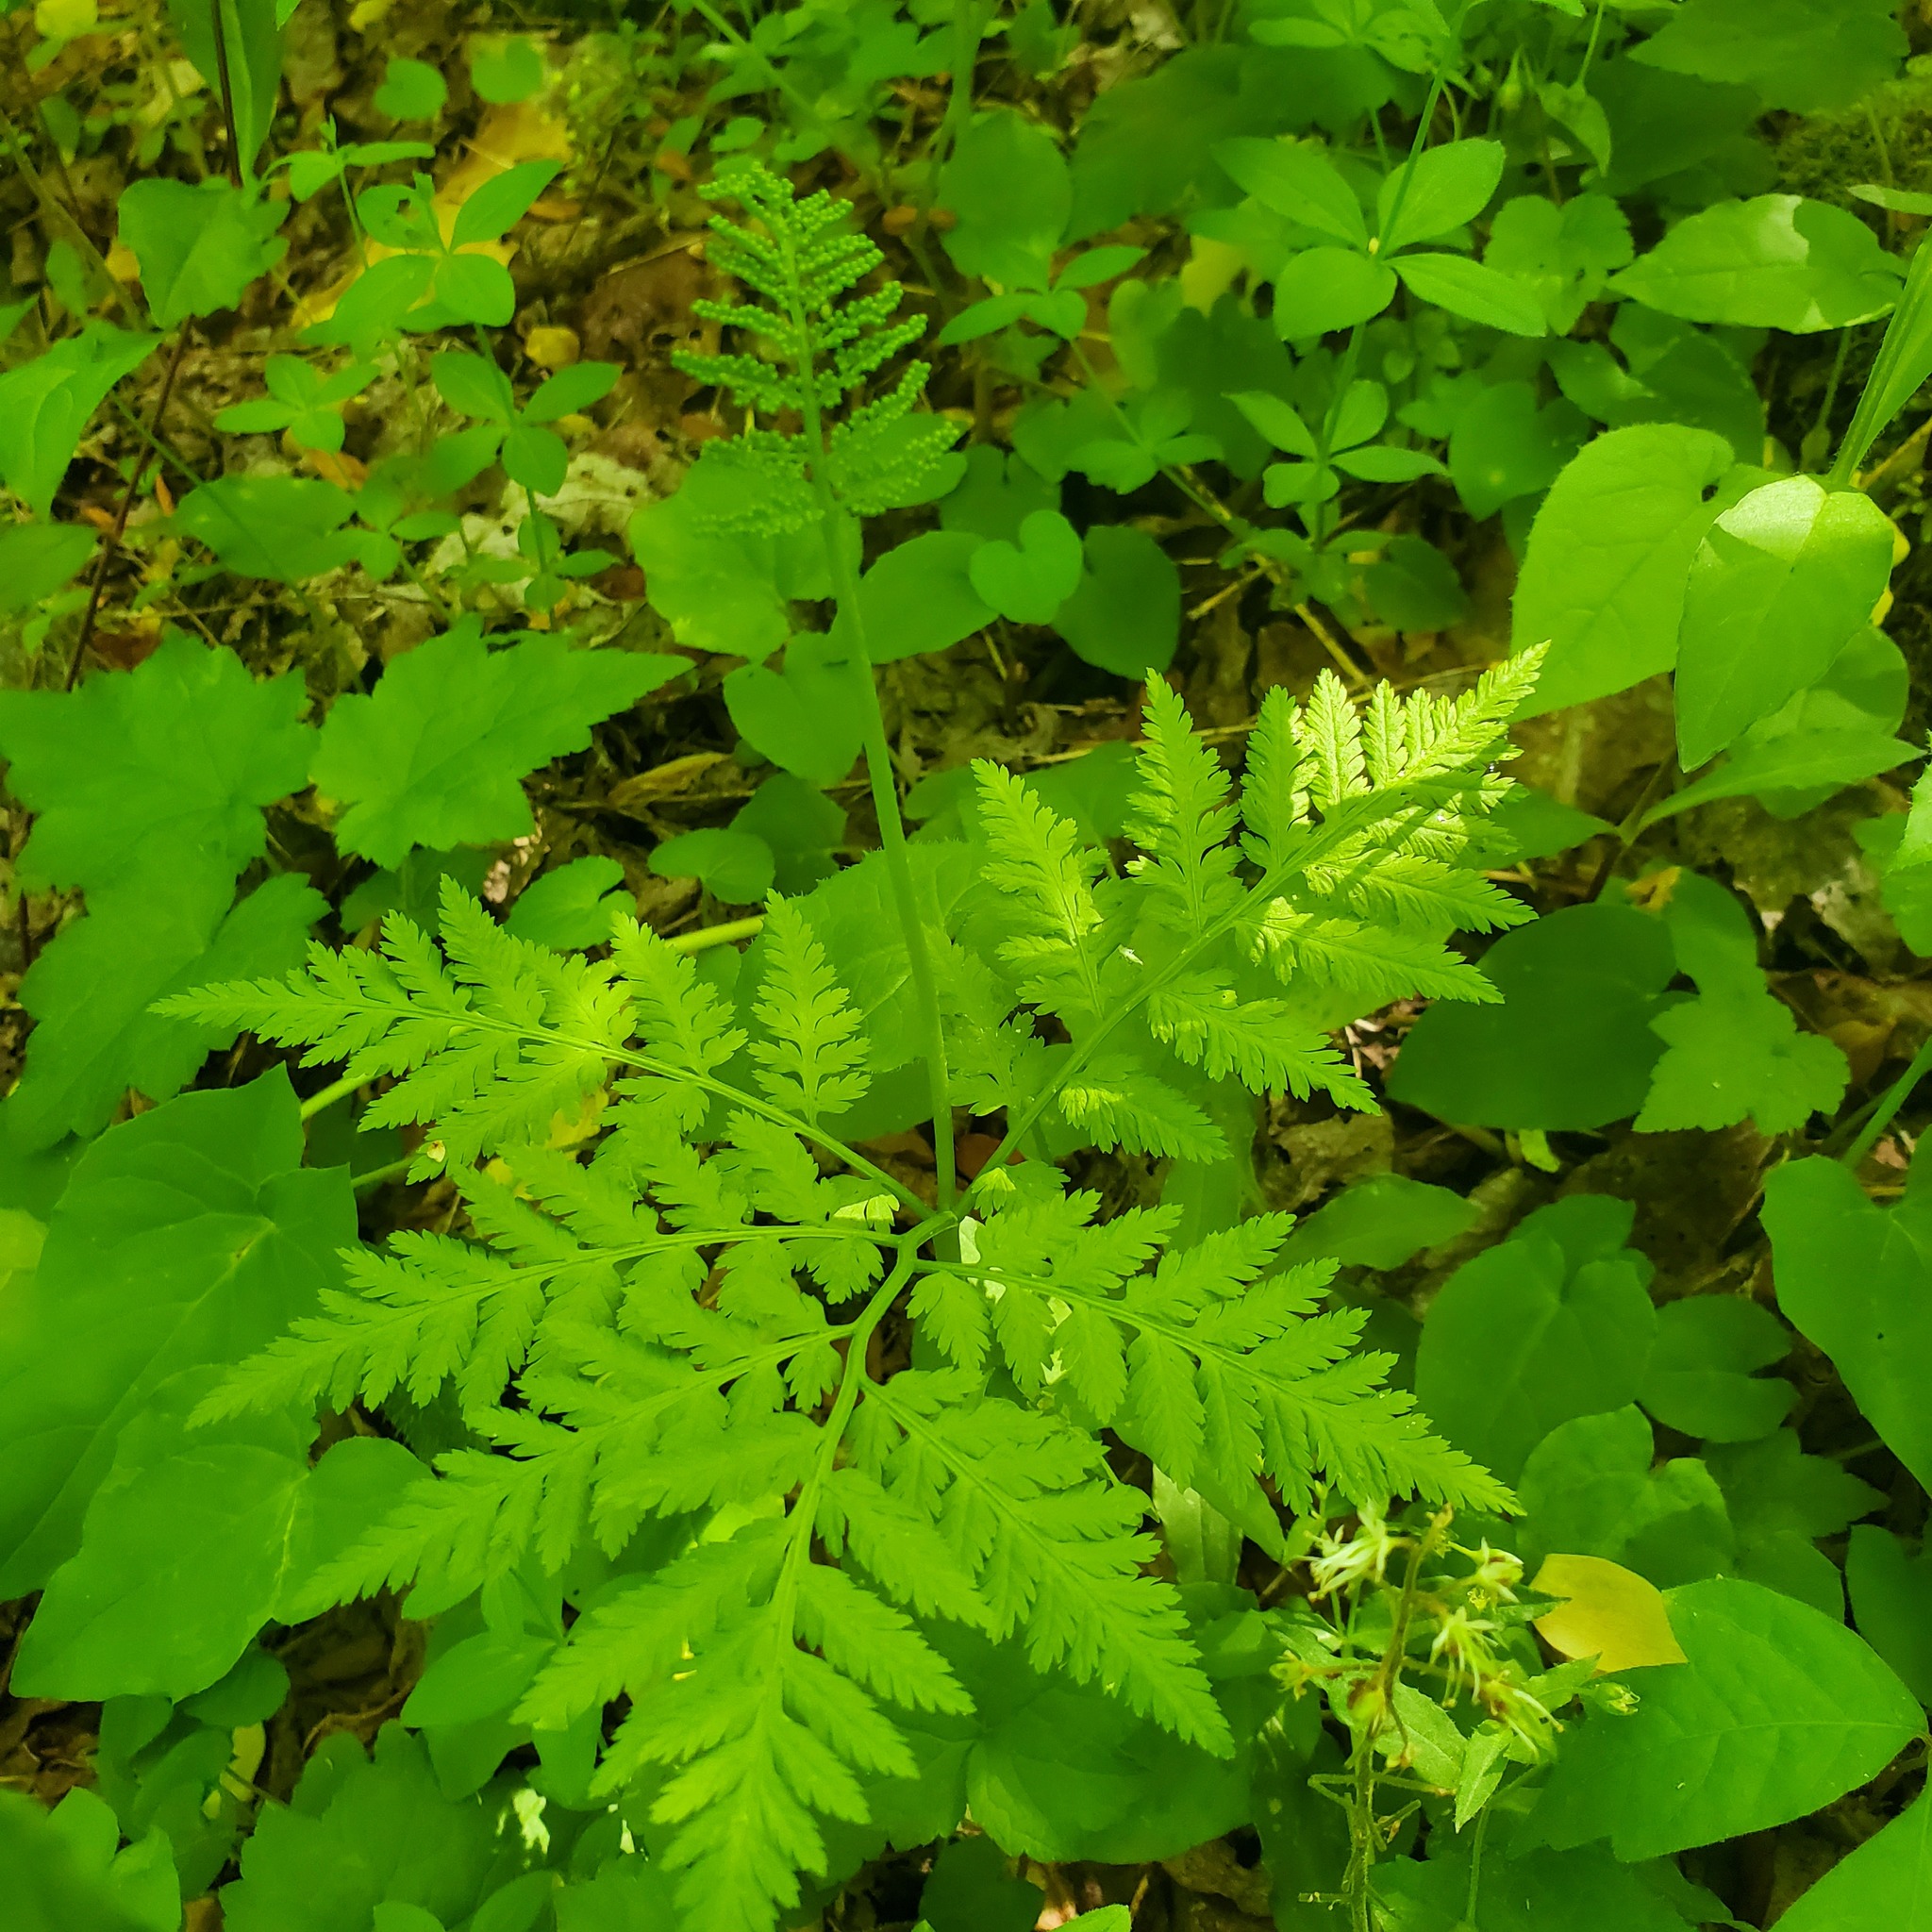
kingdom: Plantae
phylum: Tracheophyta
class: Polypodiopsida
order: Ophioglossales
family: Ophioglossaceae
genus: Botrypus
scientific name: Botrypus virginianus
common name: Common grapefern
